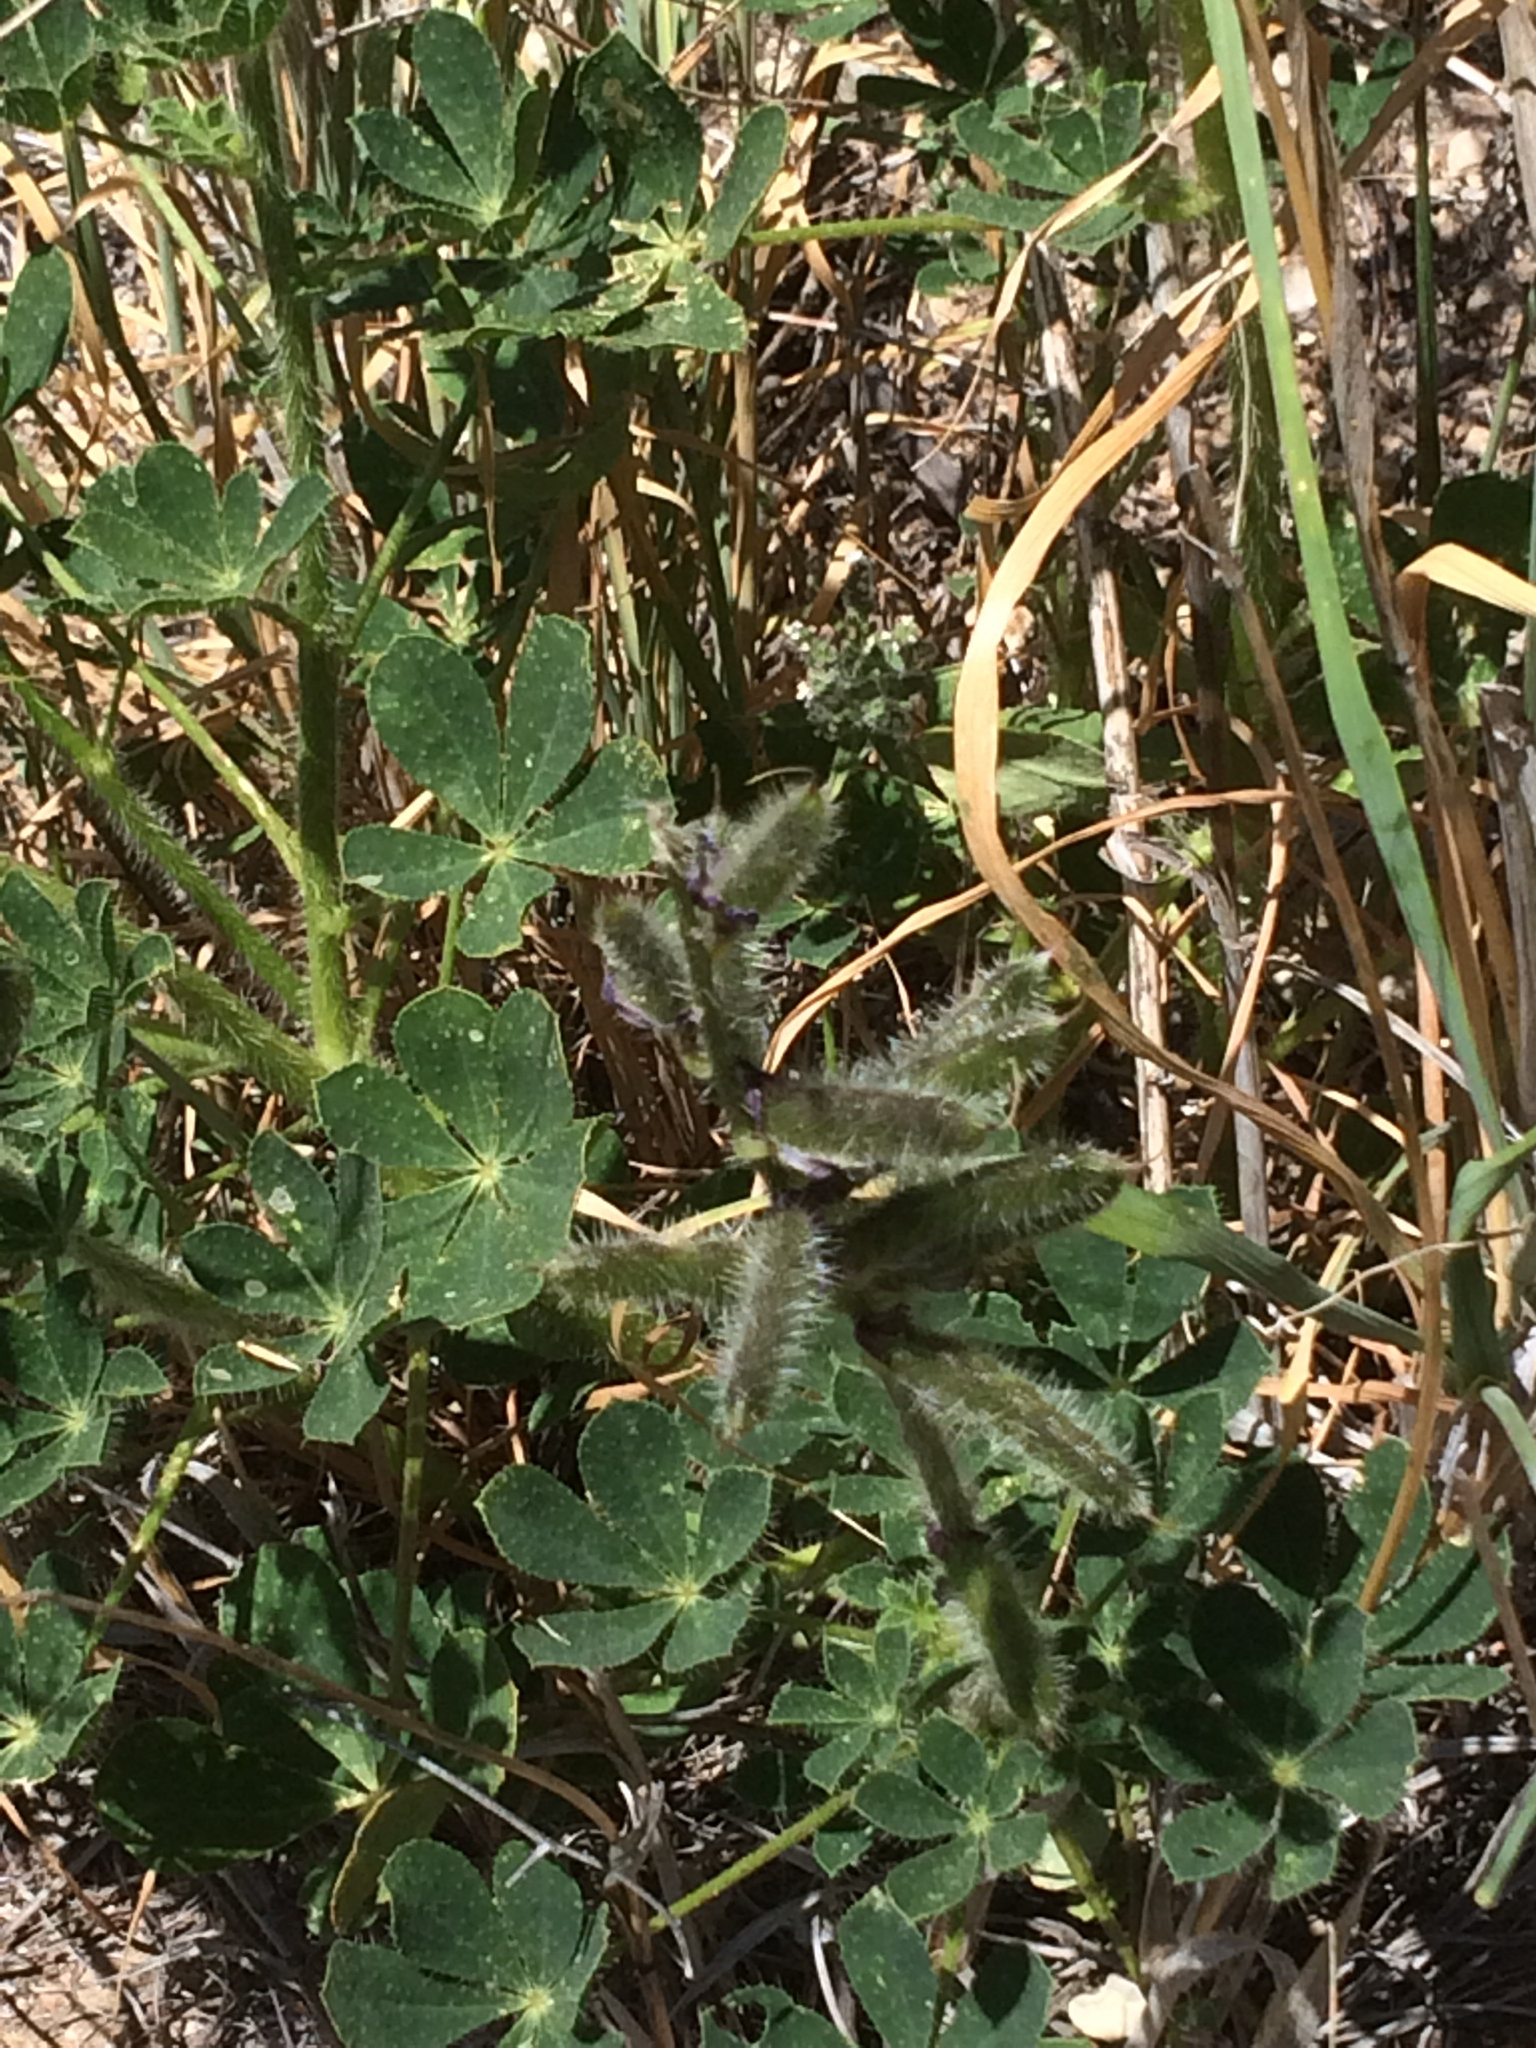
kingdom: Plantae
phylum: Tracheophyta
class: Magnoliopsida
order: Fabales
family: Fabaceae
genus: Lupinus
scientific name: Lupinus hirsutissimus
